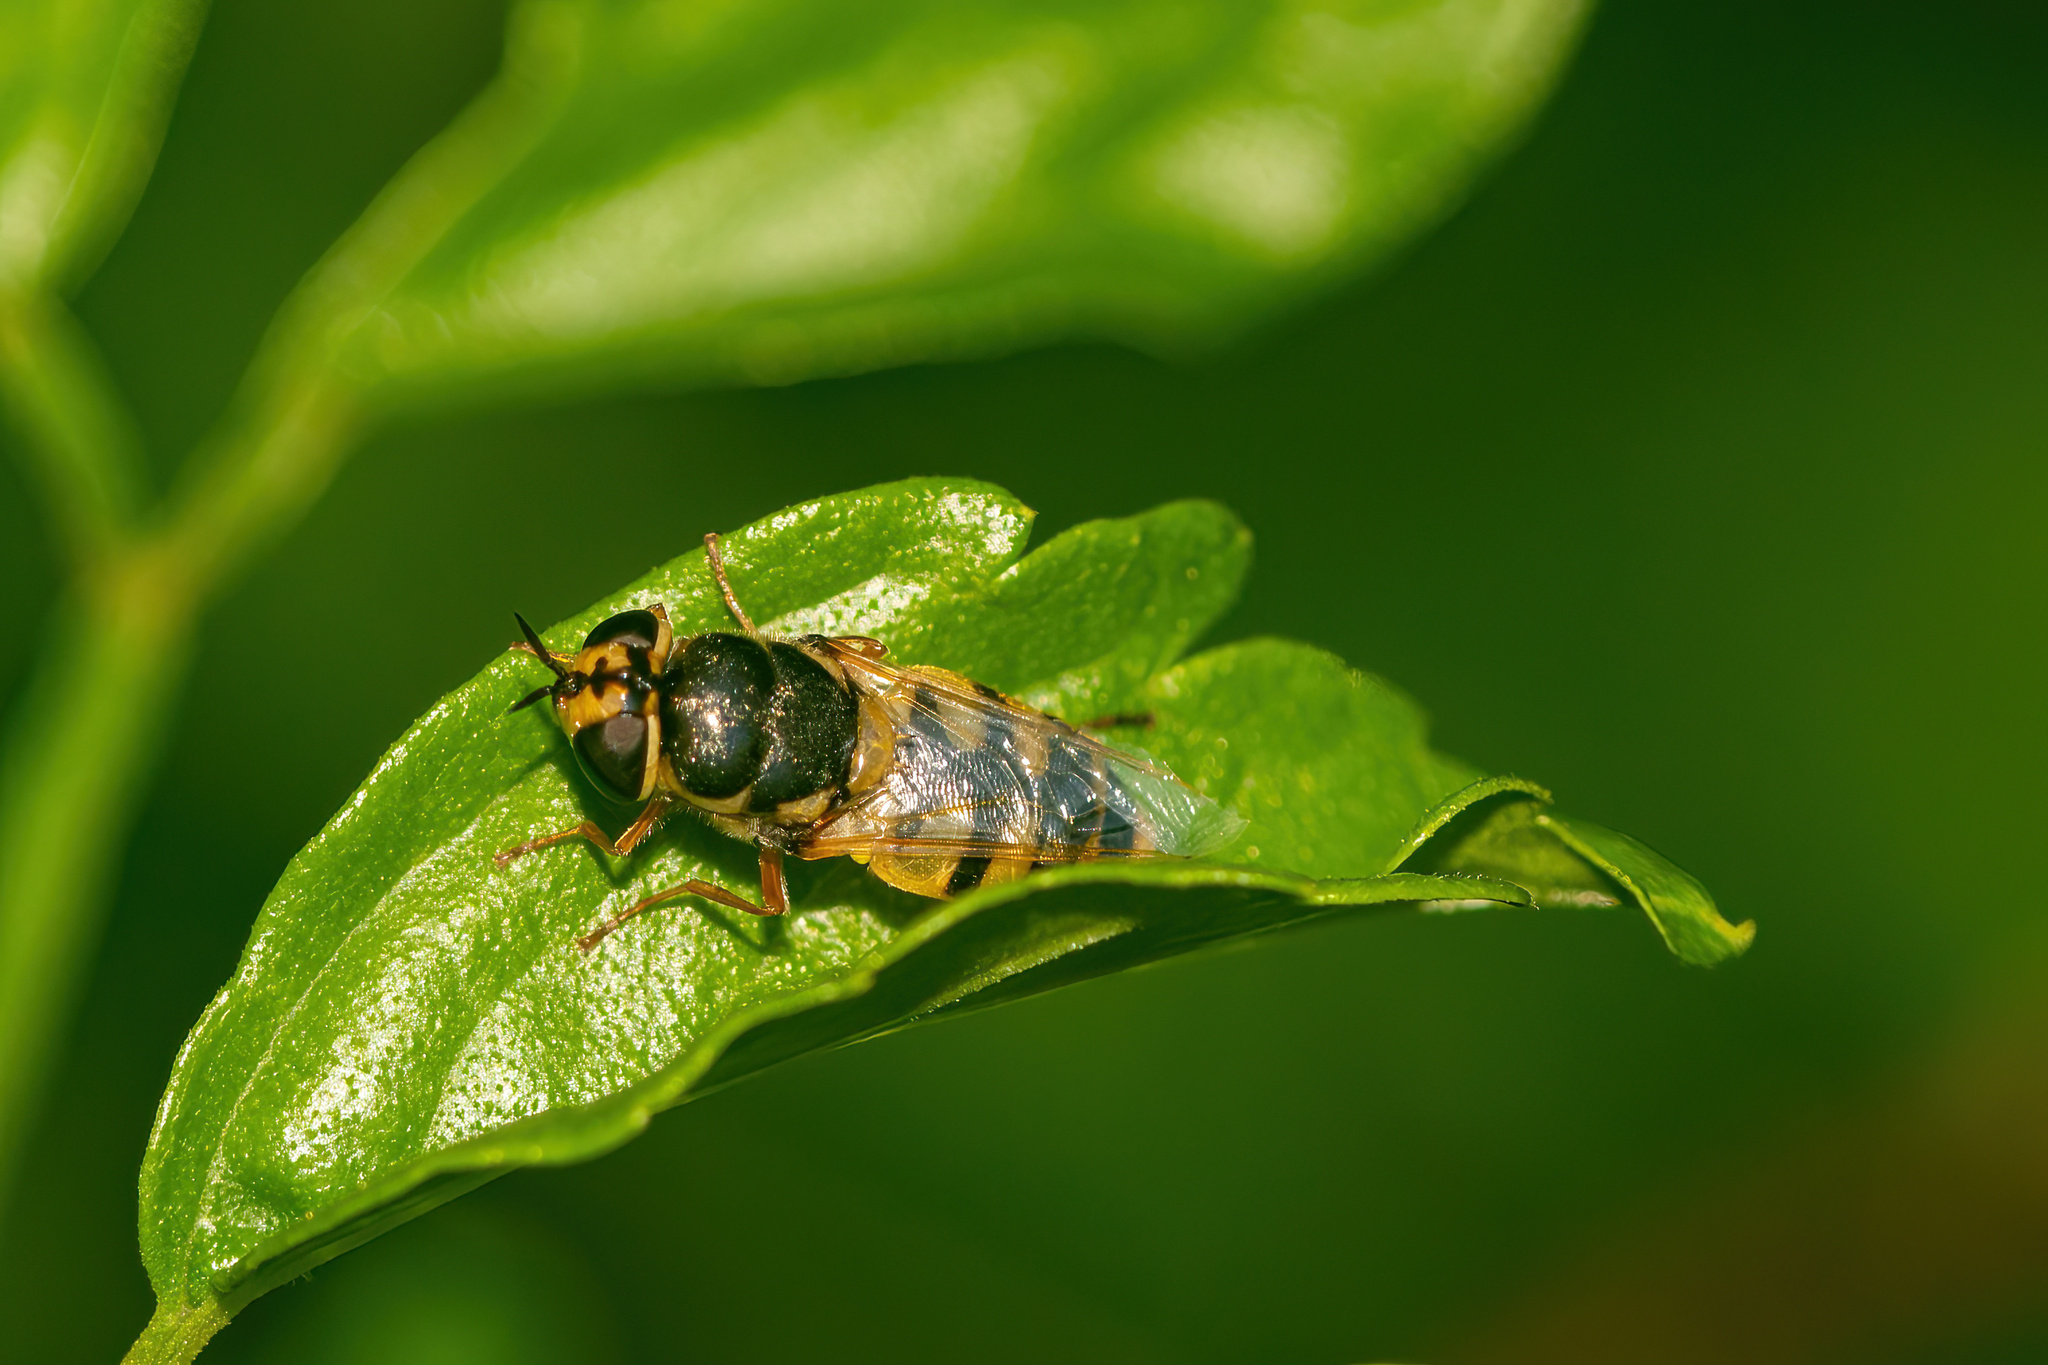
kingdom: Animalia
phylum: Arthropoda
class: Insecta
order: Diptera
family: Stratiomyidae
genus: Odontomyia
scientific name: Odontomyia rufipes
